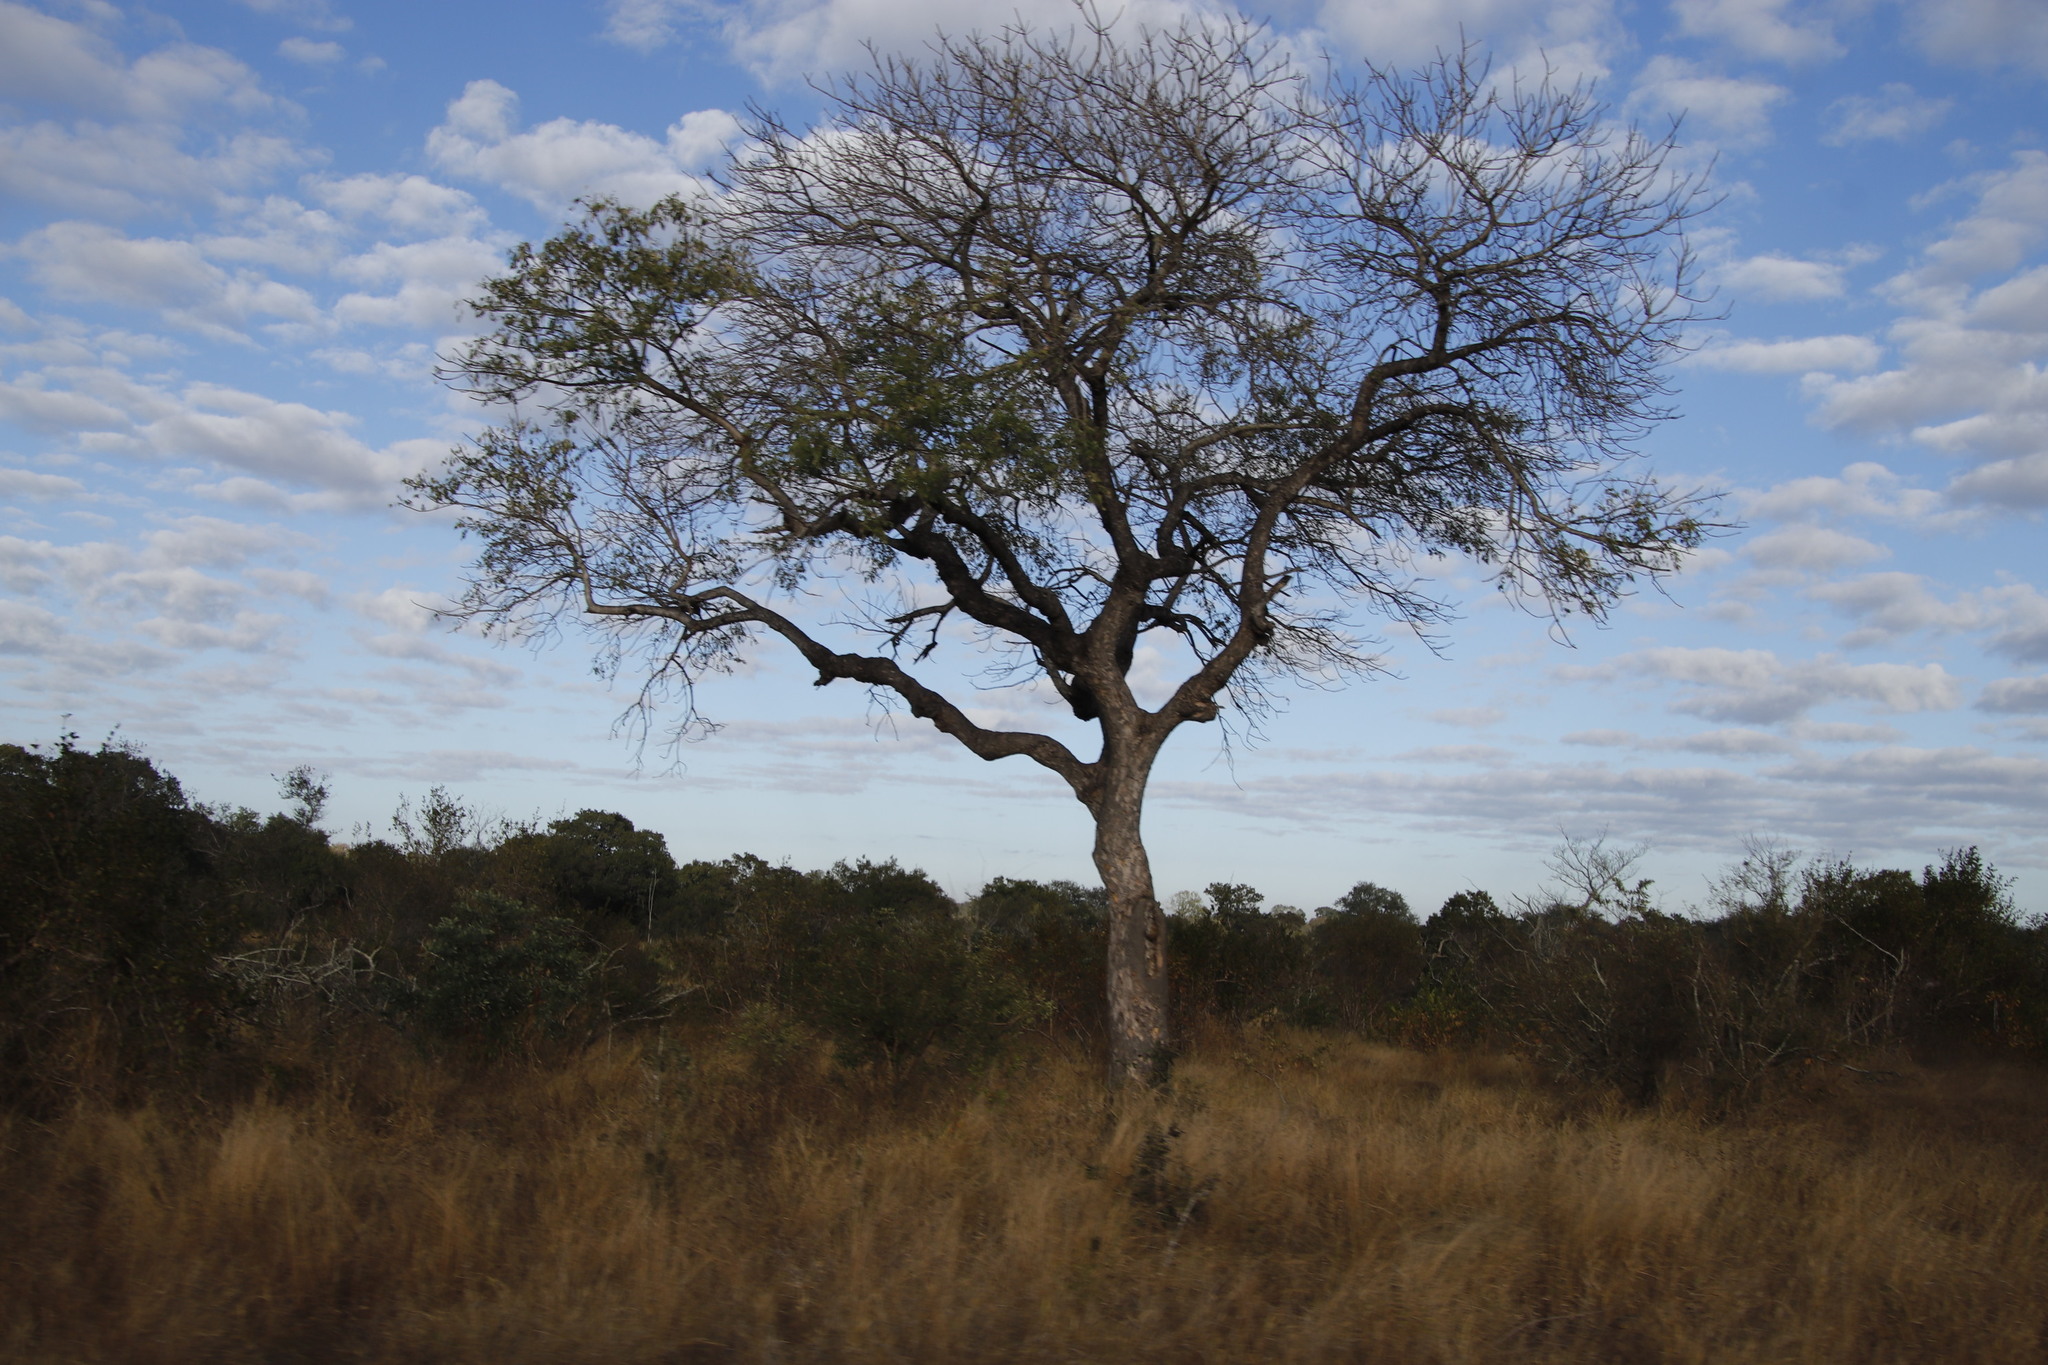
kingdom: Plantae
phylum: Tracheophyta
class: Magnoliopsida
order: Sapindales
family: Anacardiaceae
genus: Sclerocarya
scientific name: Sclerocarya birrea
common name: Marula
